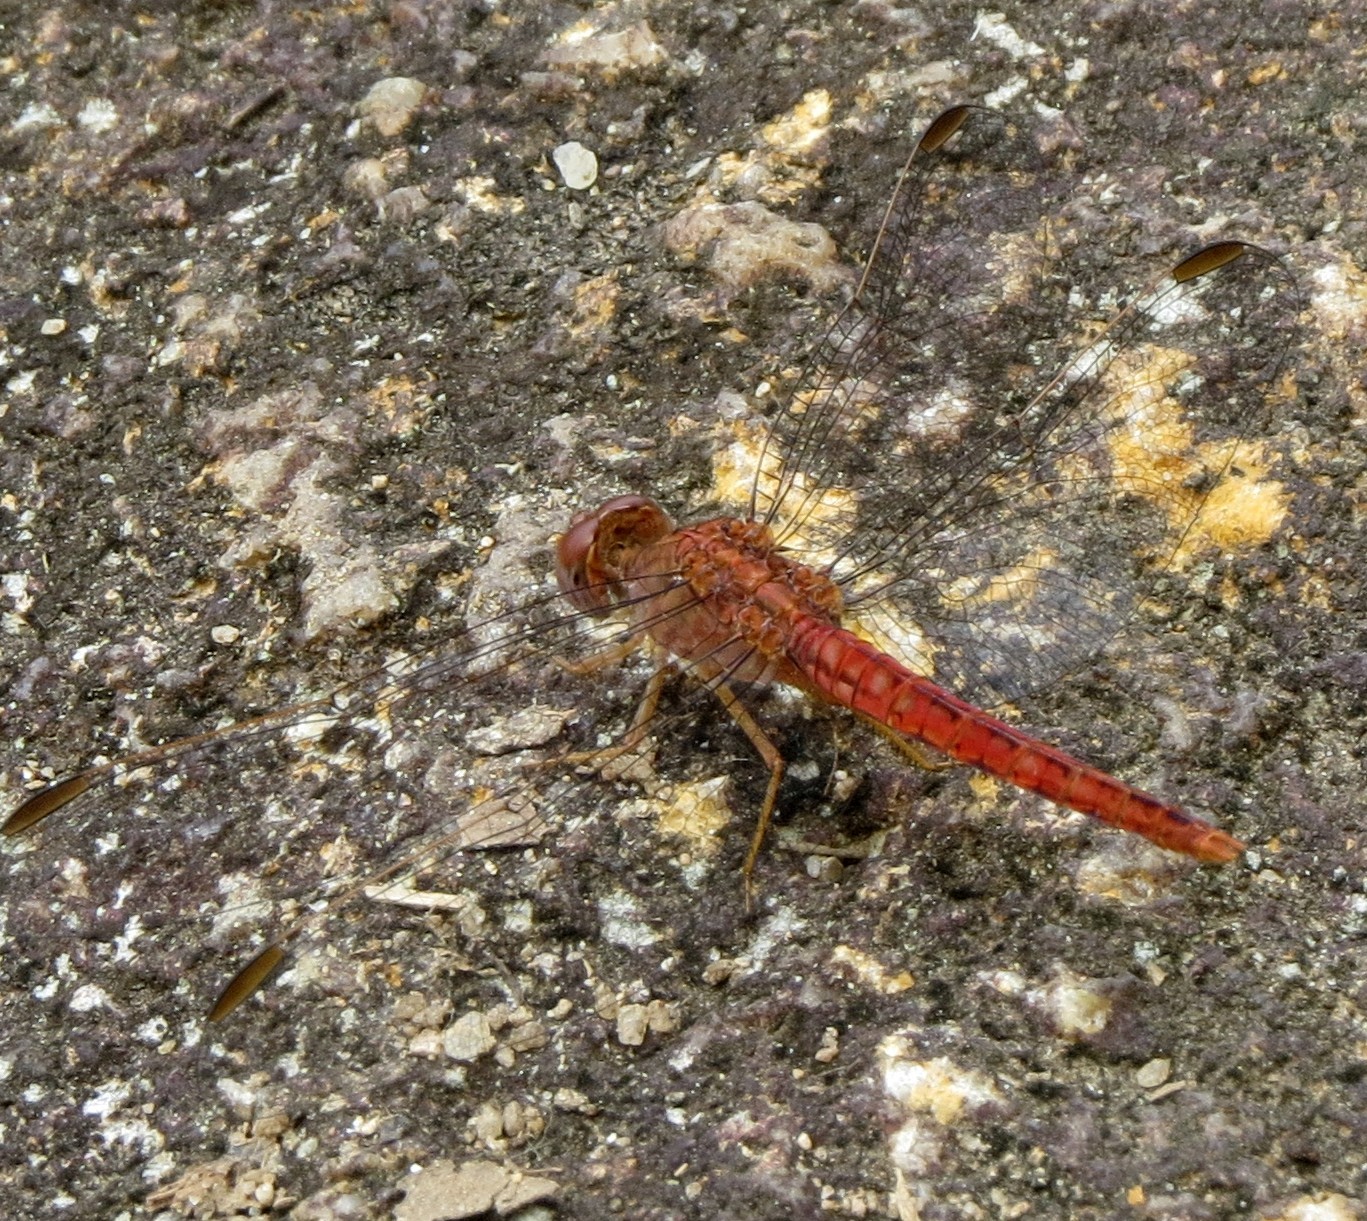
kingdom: Animalia
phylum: Arthropoda
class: Insecta
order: Odonata
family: Libellulidae
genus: Crocothemis
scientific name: Crocothemis divisa
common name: Divisa scarlet
